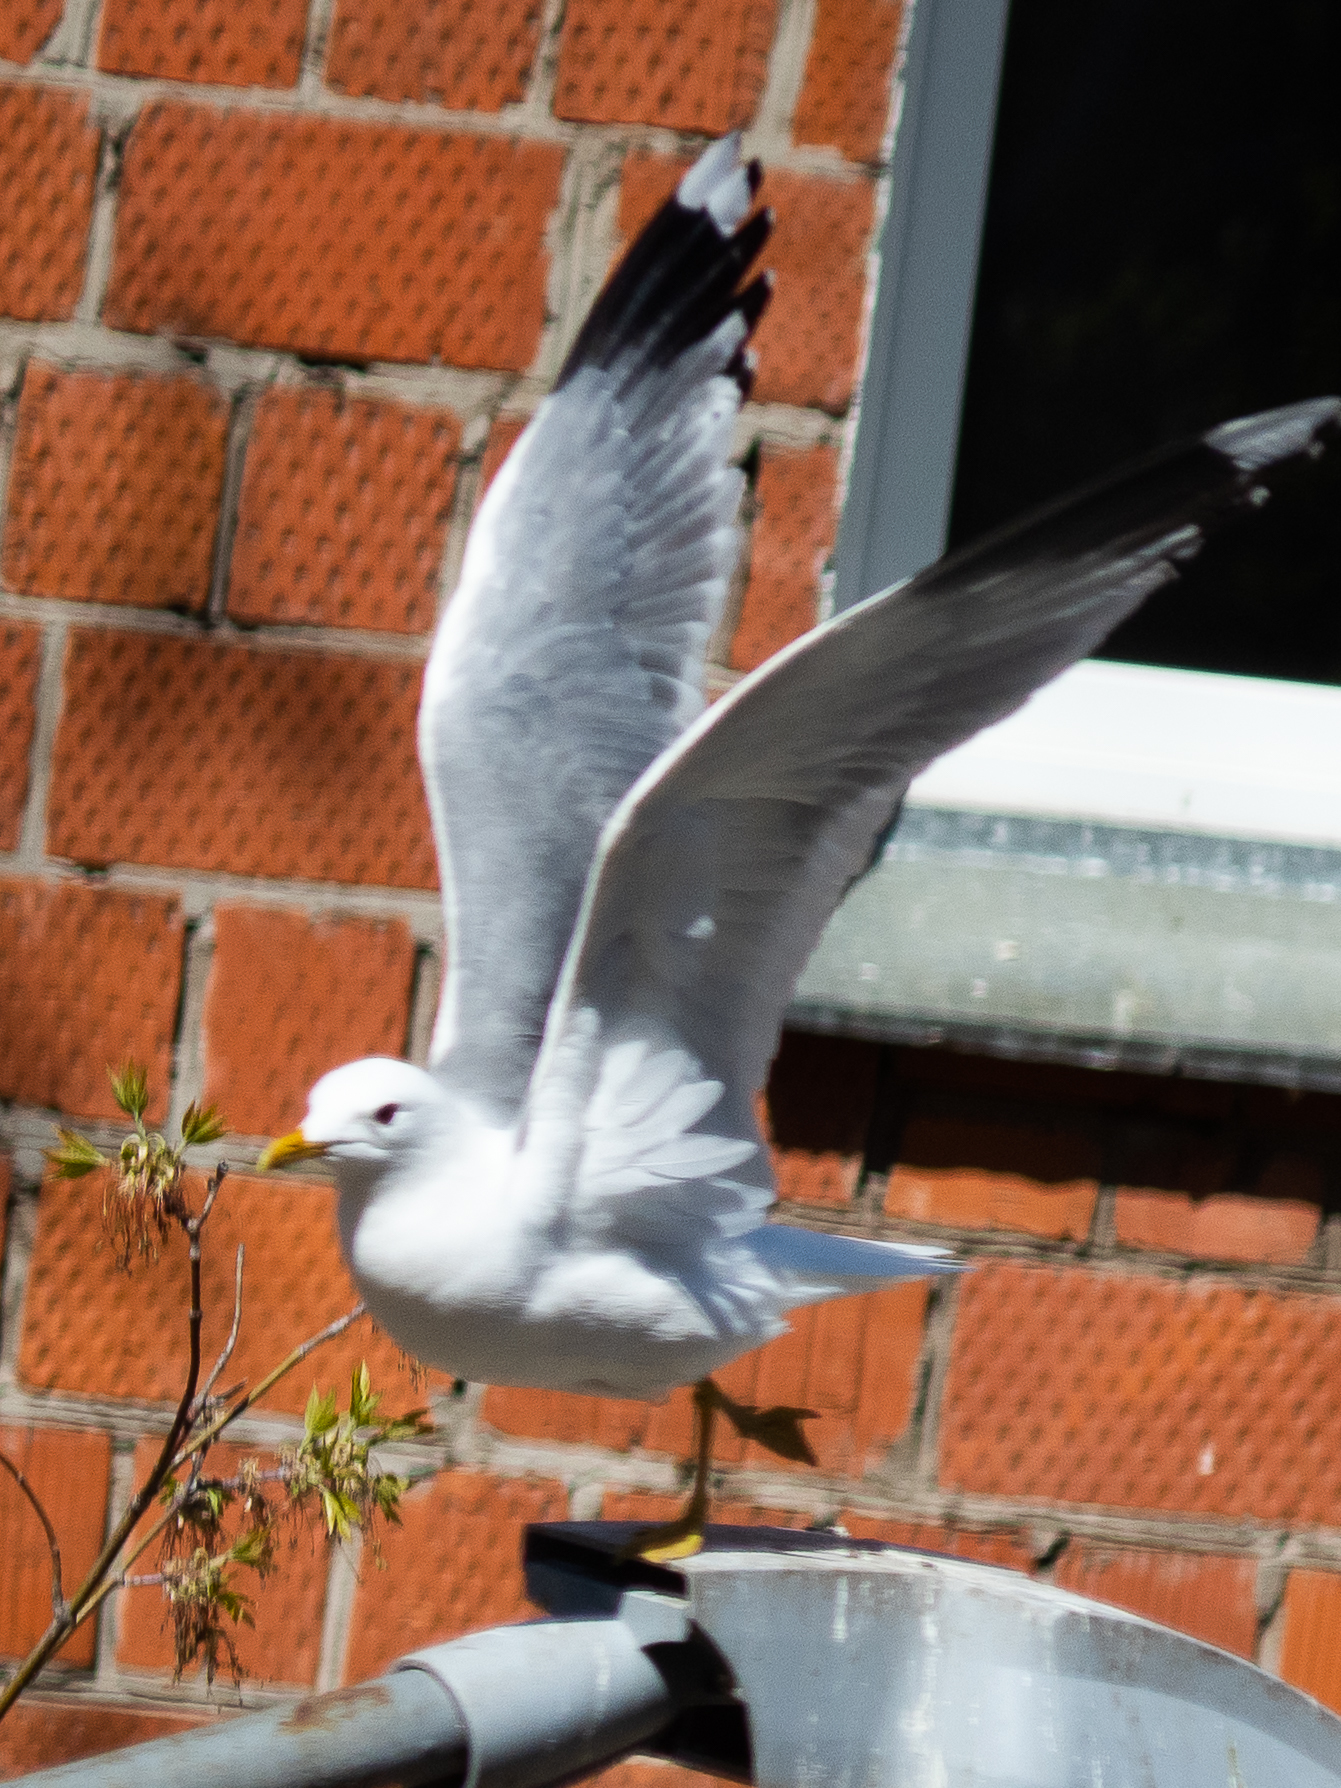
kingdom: Animalia
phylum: Chordata
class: Aves
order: Charadriiformes
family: Laridae
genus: Larus
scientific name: Larus canus
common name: Mew gull
